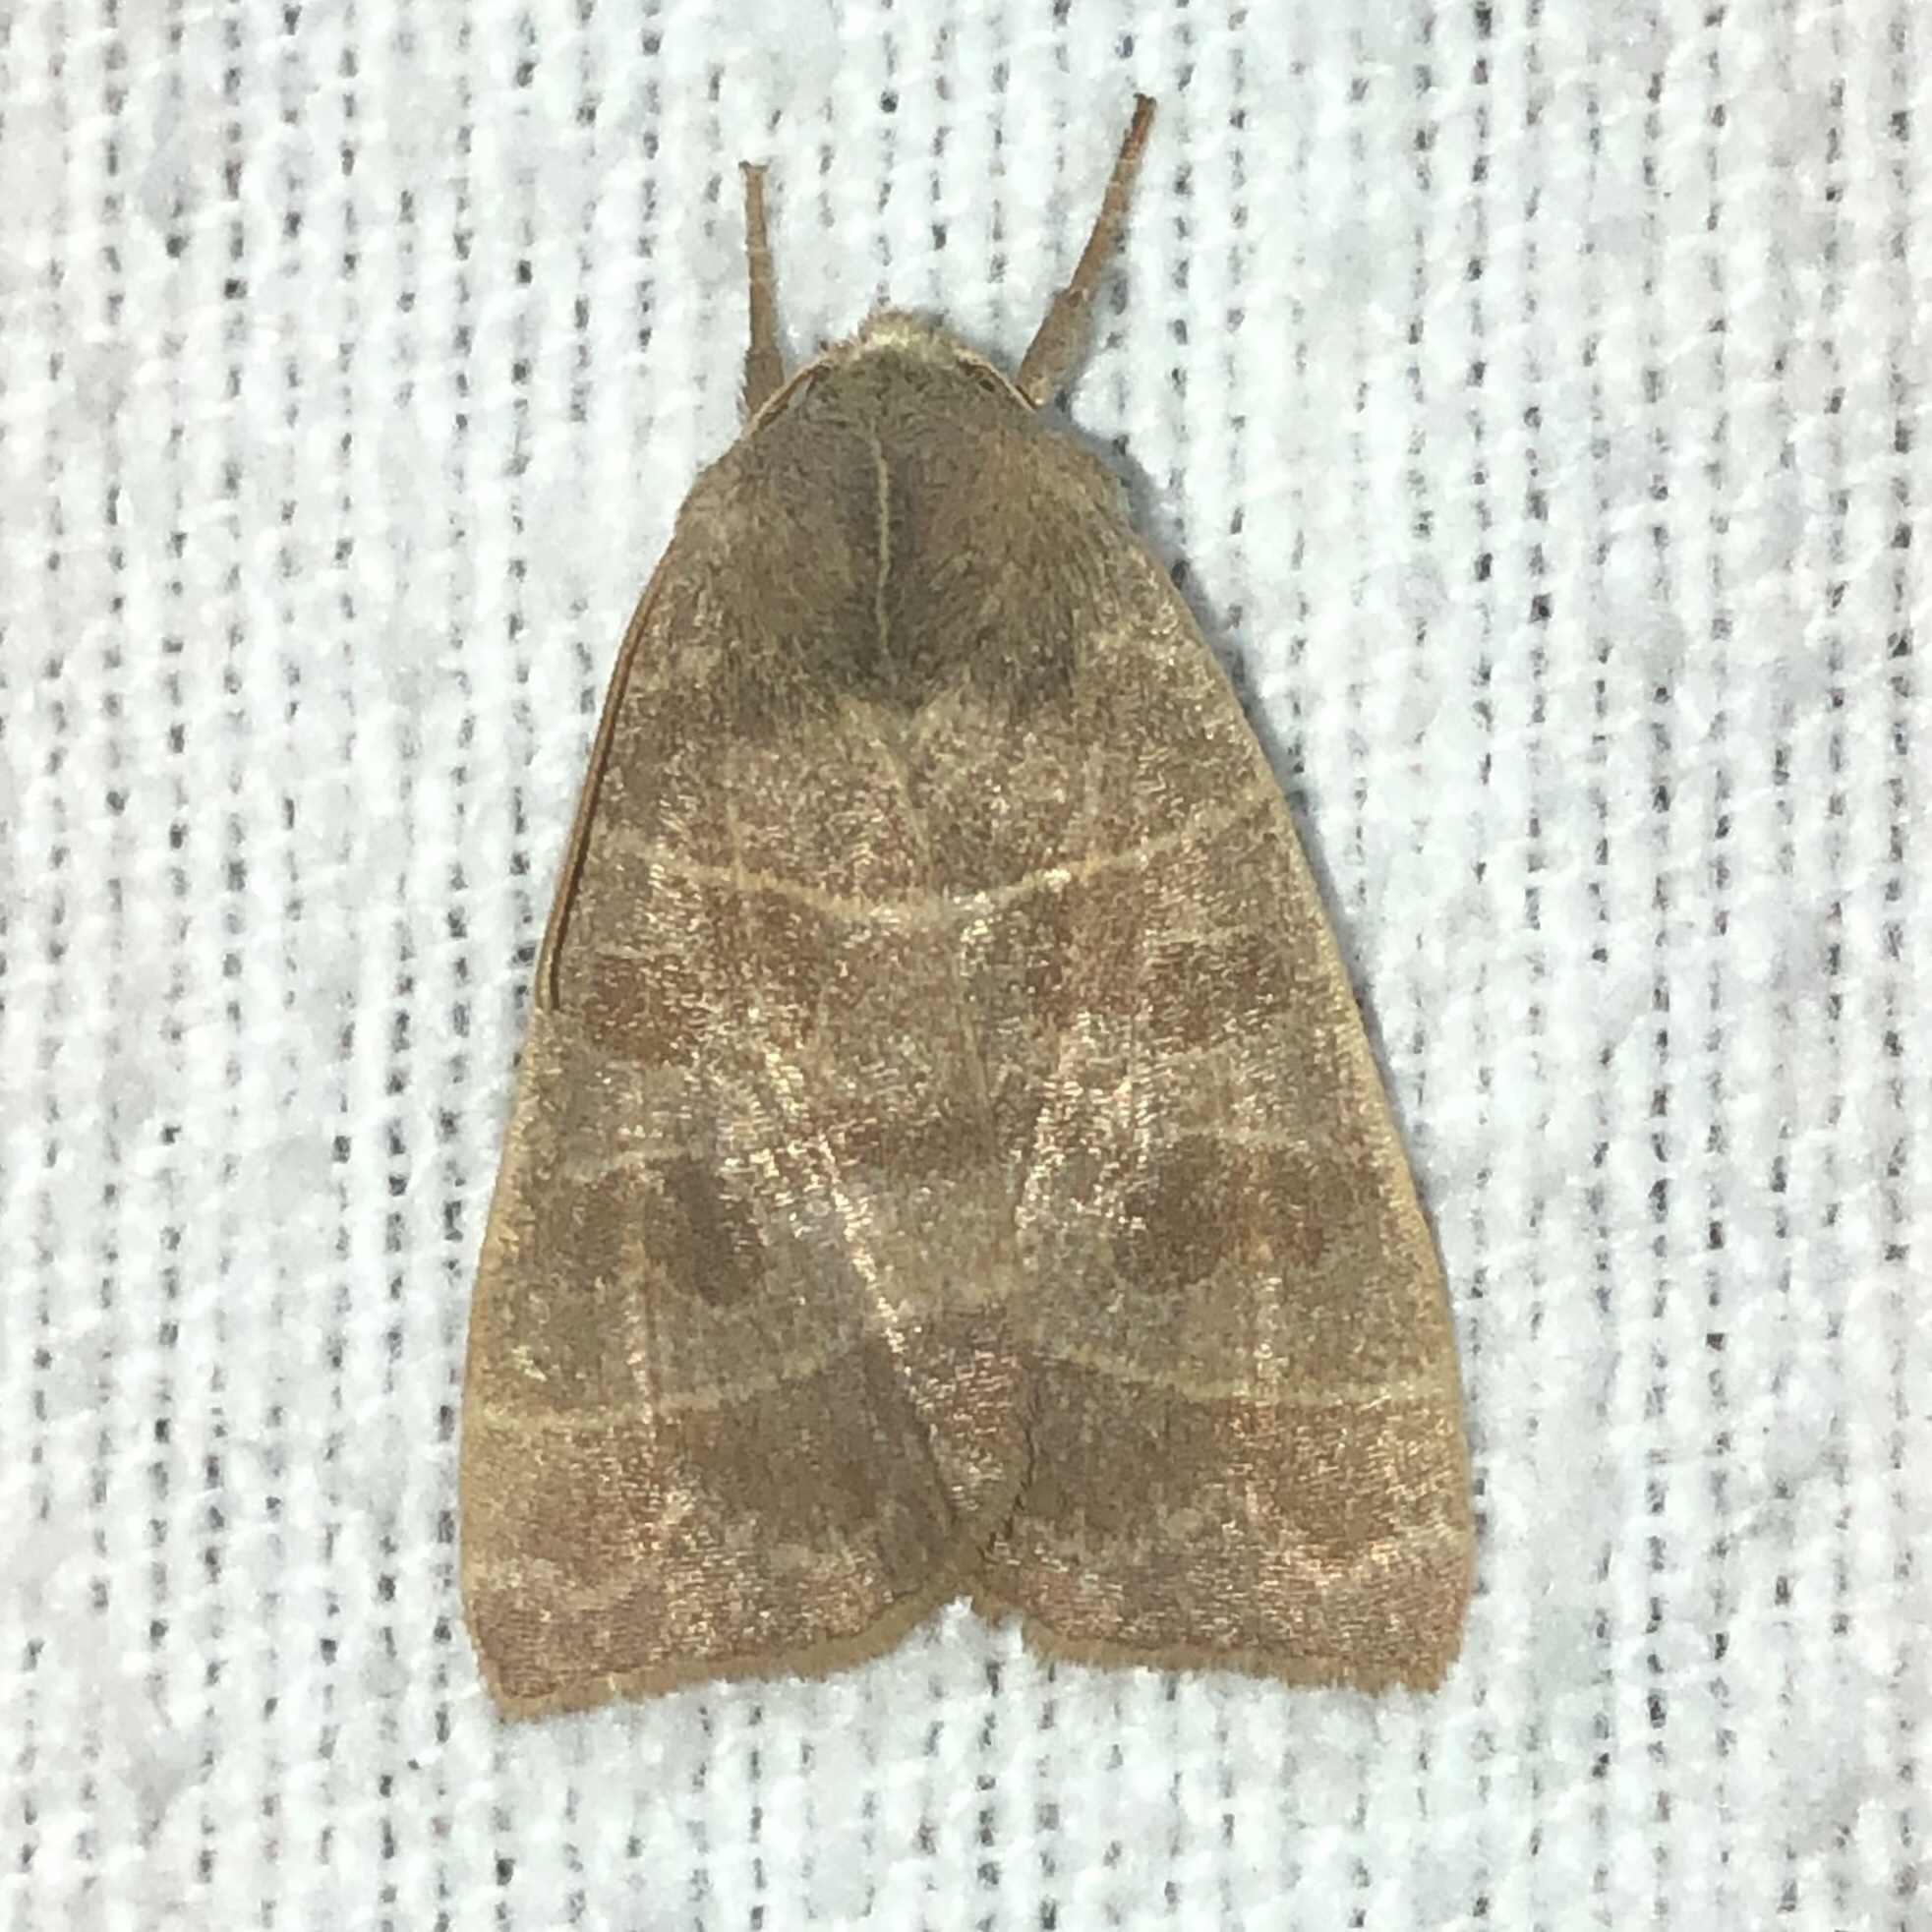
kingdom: Animalia
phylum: Arthropoda
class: Insecta
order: Lepidoptera
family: Noctuidae
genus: Ipimorpha
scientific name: Ipimorpha pleonectusa
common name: Even-lined sallow
